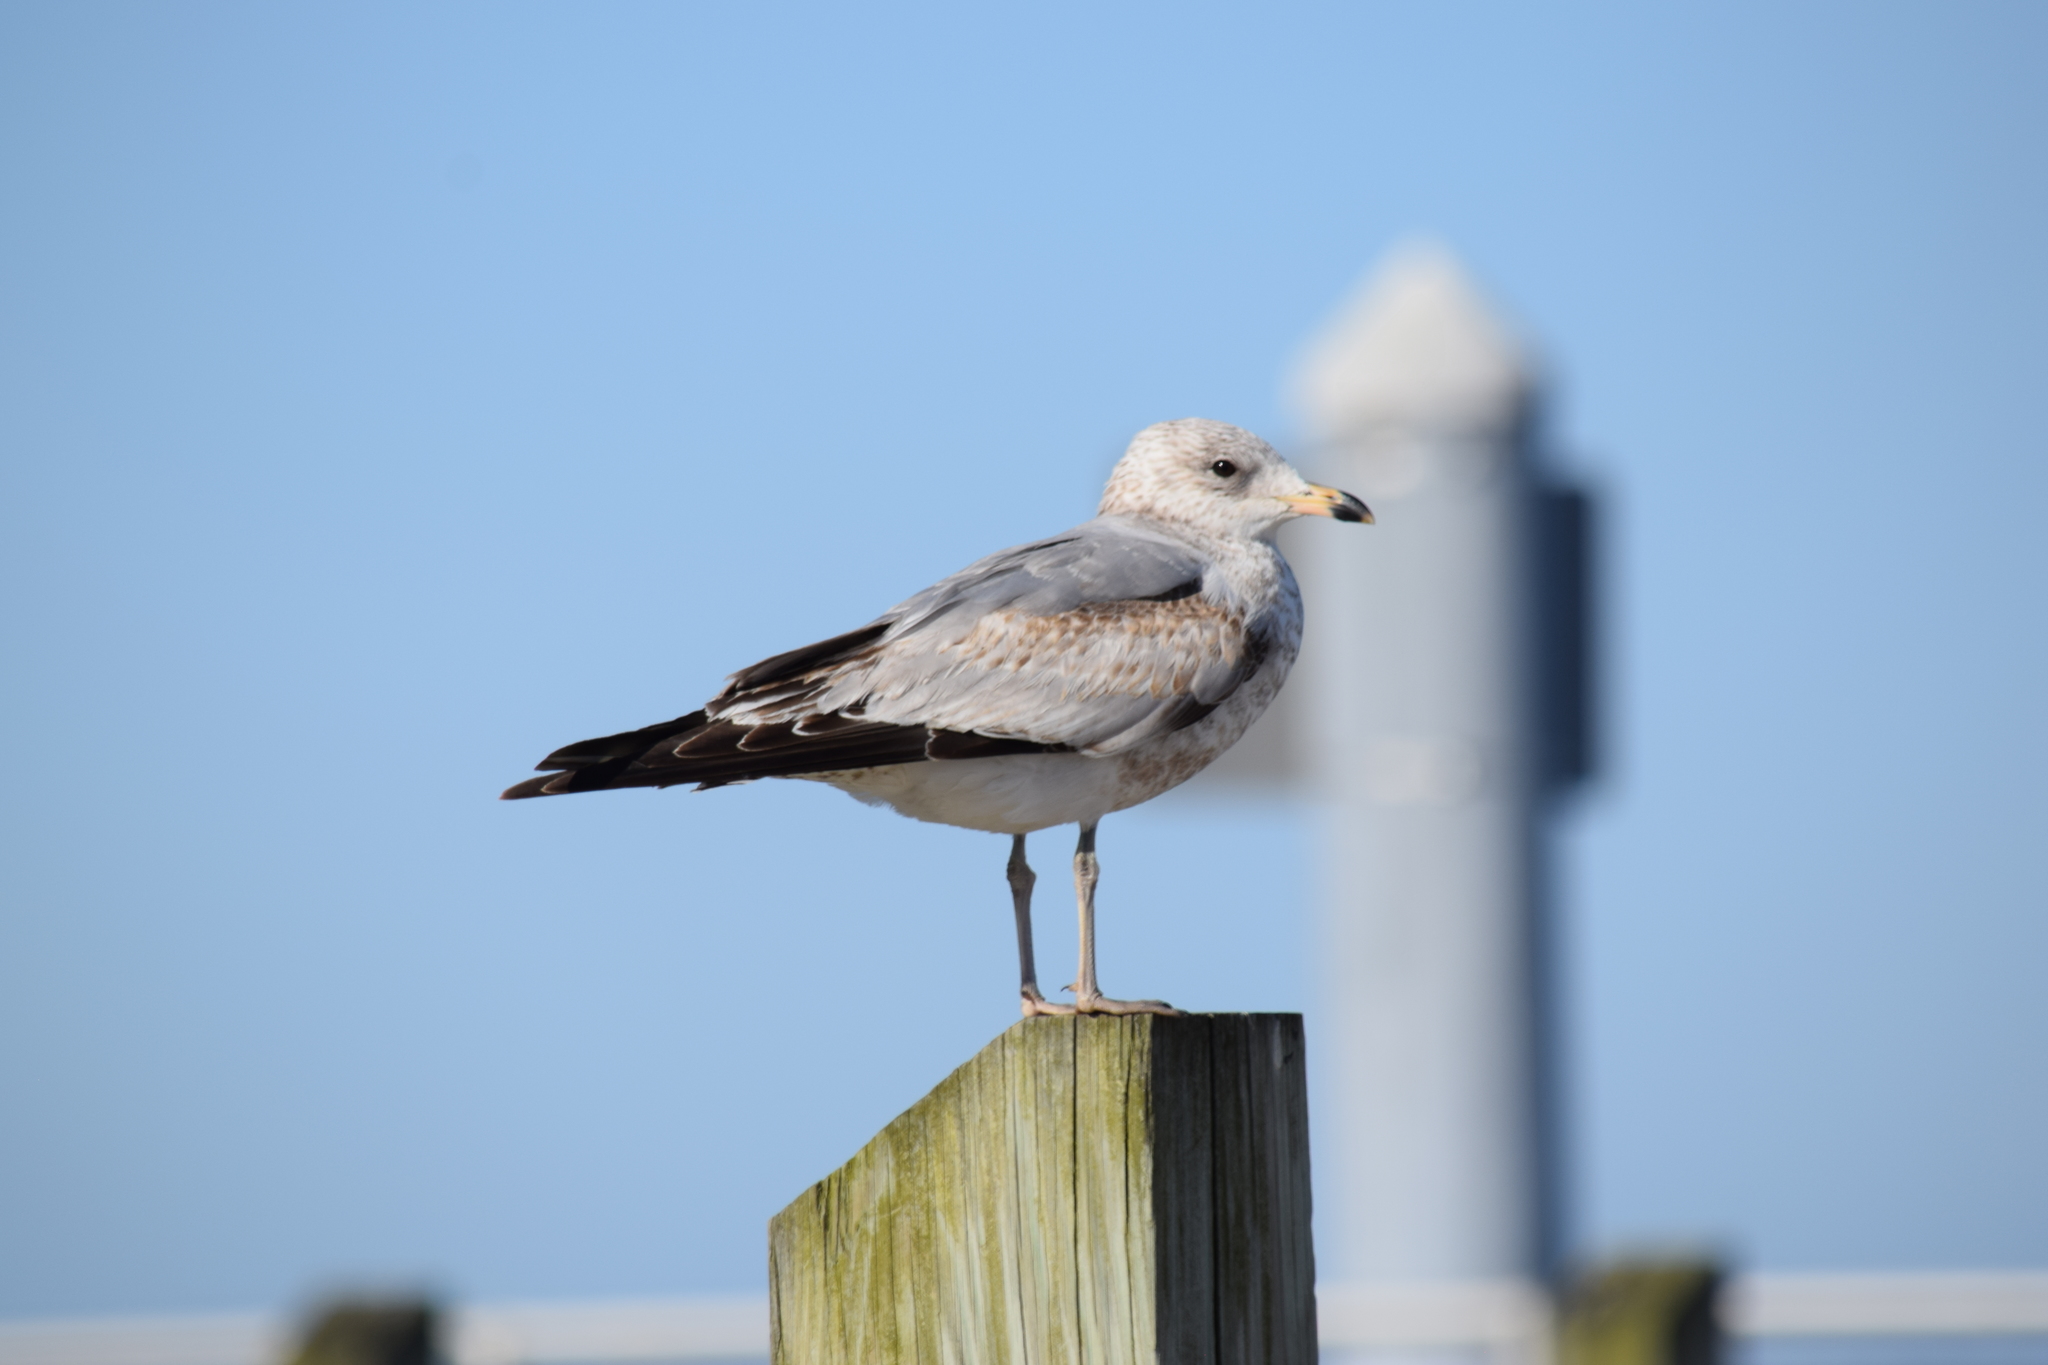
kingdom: Animalia
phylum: Chordata
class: Aves
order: Charadriiformes
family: Laridae
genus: Larus
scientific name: Larus delawarensis
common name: Ring-billed gull
